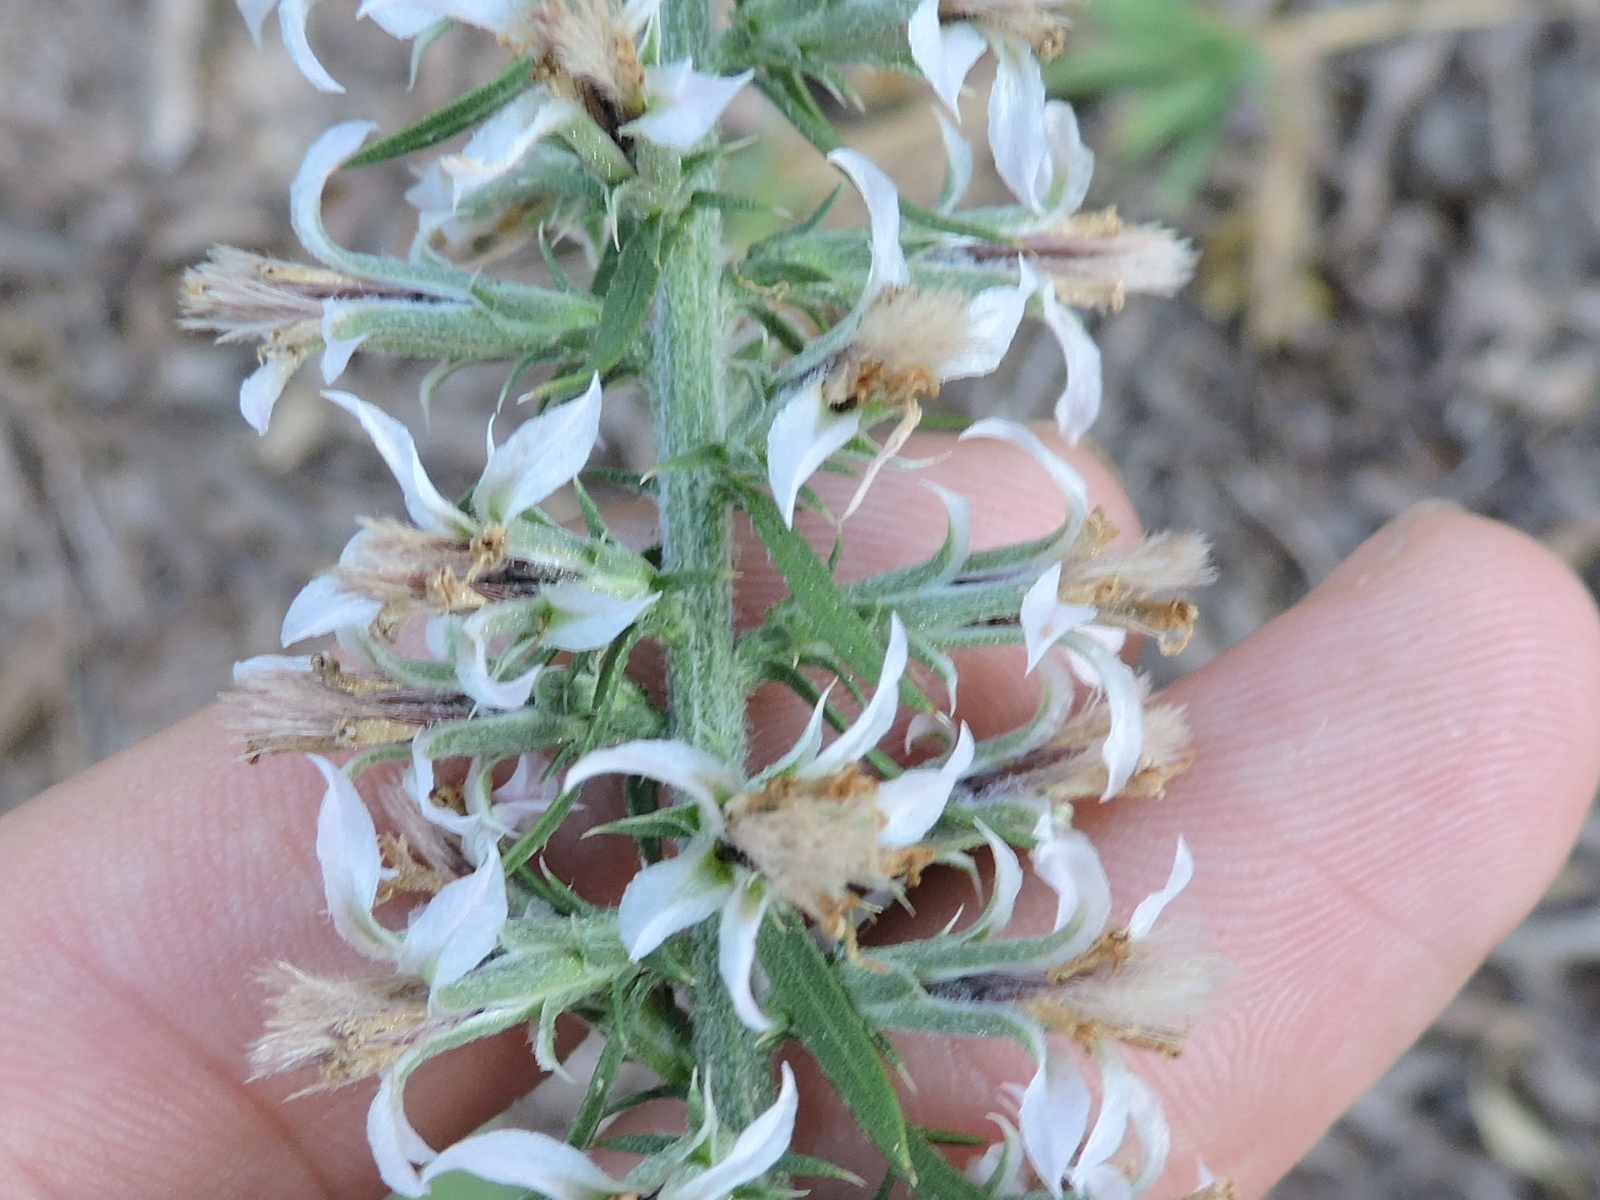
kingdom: Plantae
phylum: Tracheophyta
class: Magnoliopsida
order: Asterales
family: Asteraceae
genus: Liatris
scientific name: Liatris hesperelegans
